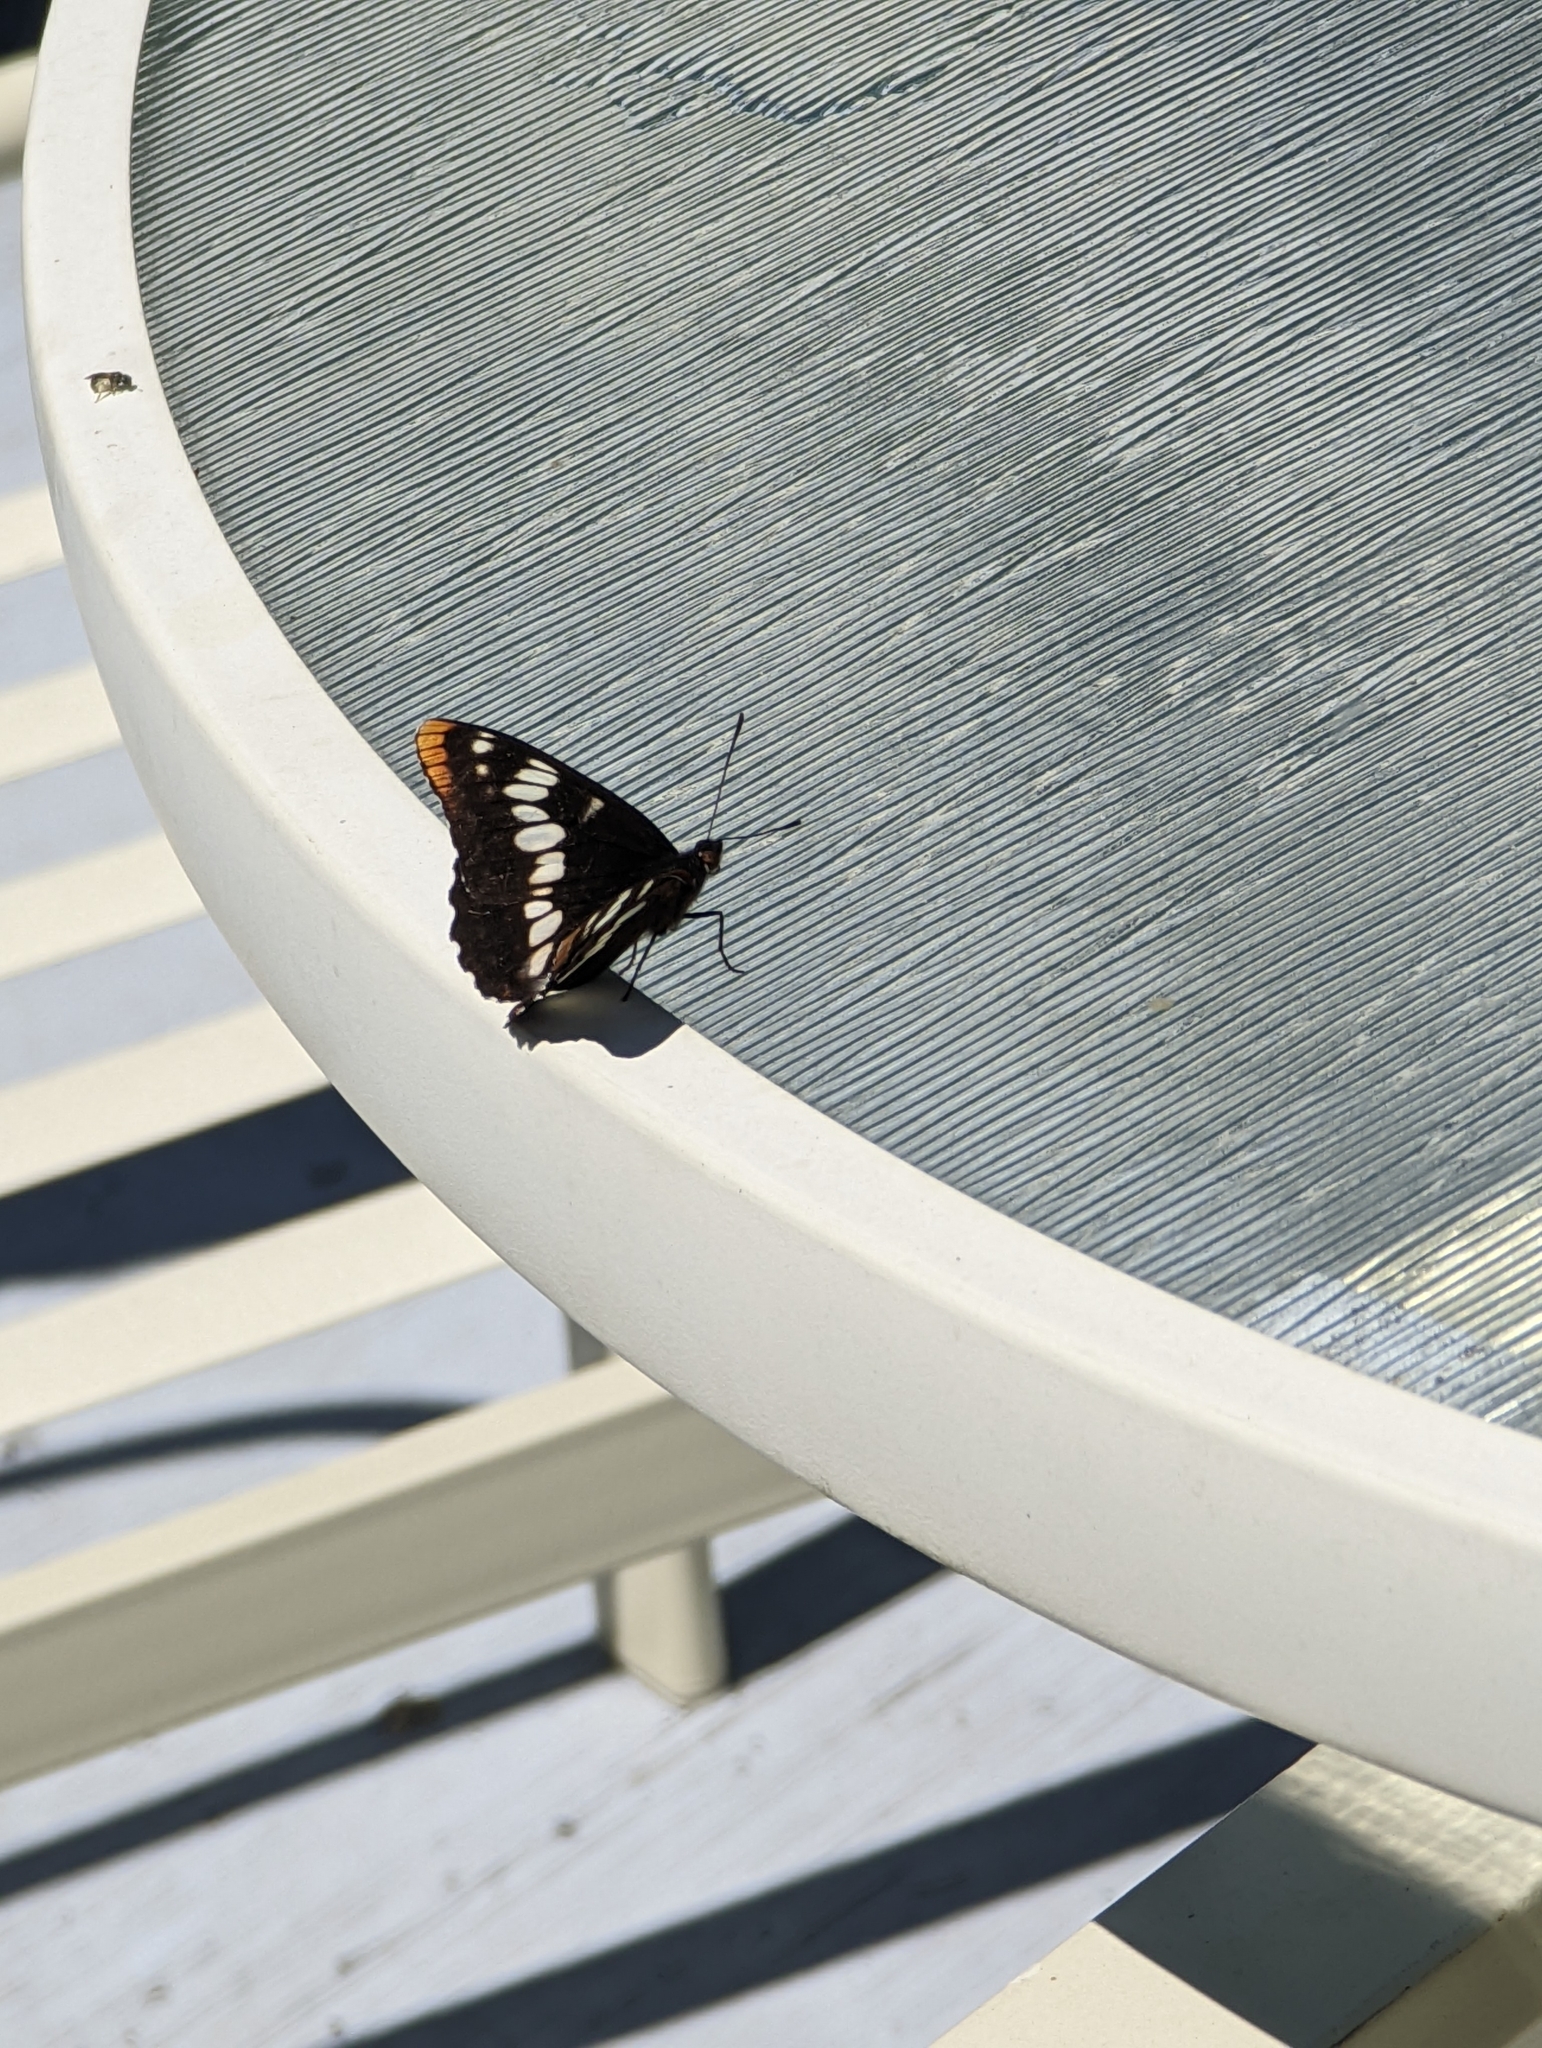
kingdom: Animalia
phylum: Arthropoda
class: Insecta
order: Lepidoptera
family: Nymphalidae
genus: Limenitis
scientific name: Limenitis lorquini
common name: Lorquin's admiral
